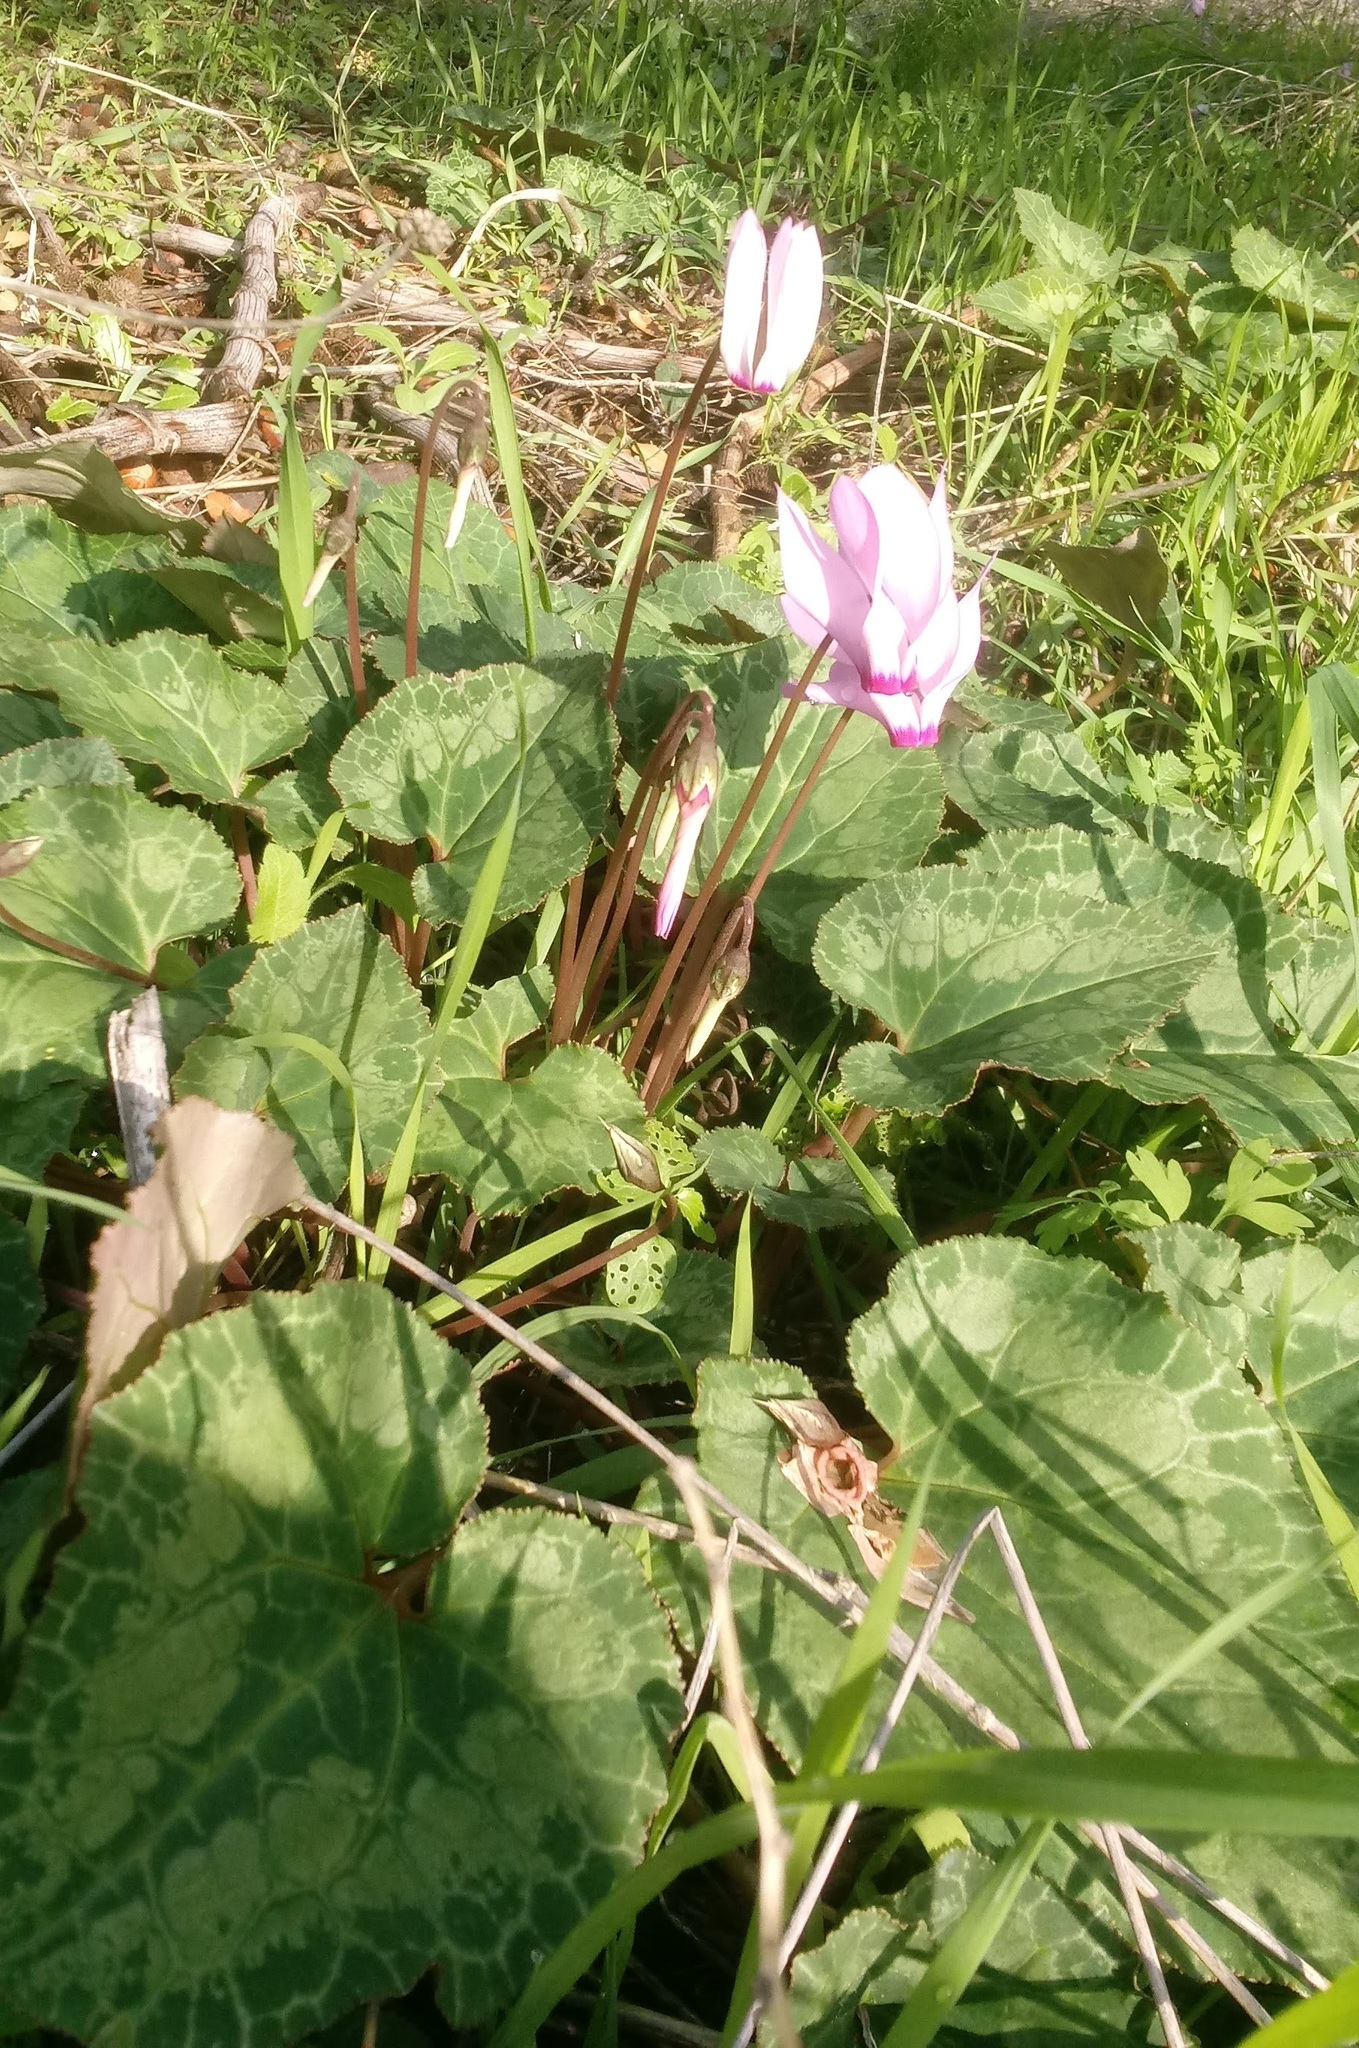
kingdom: Plantae
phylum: Tracheophyta
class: Magnoliopsida
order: Ericales
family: Primulaceae
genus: Cyclamen
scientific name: Cyclamen persicum
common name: Florist's cyclamen
